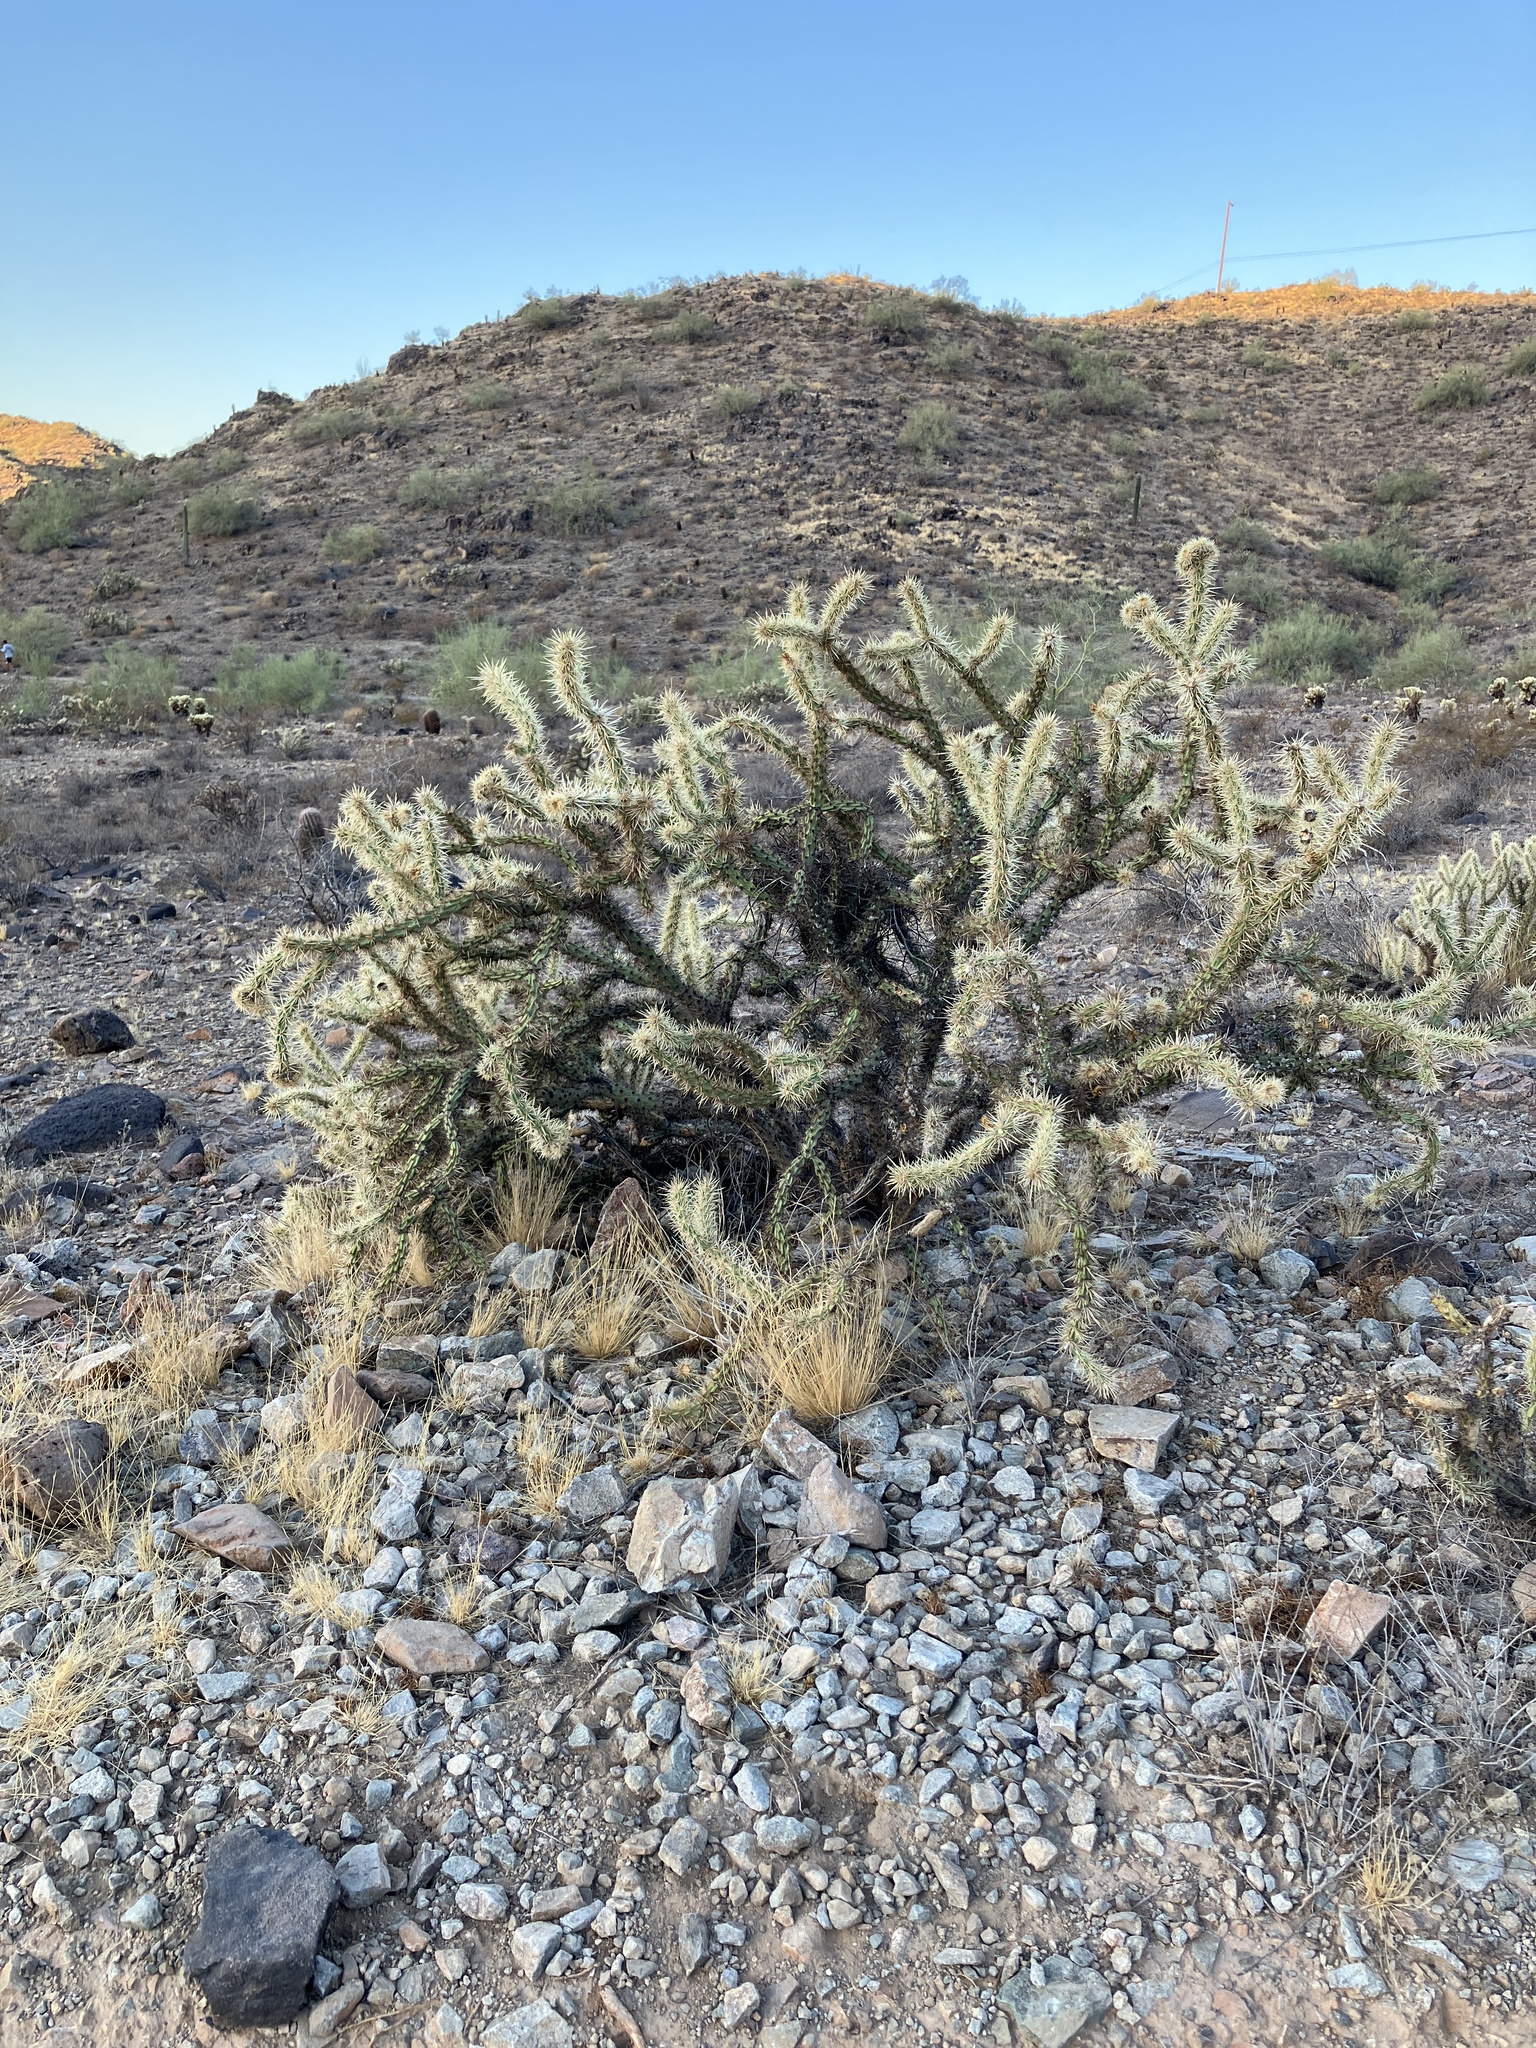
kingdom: Plantae
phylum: Tracheophyta
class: Magnoliopsida
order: Caryophyllales
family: Cactaceae
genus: Cylindropuntia
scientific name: Cylindropuntia acanthocarpa
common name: Buckhorn cholla
